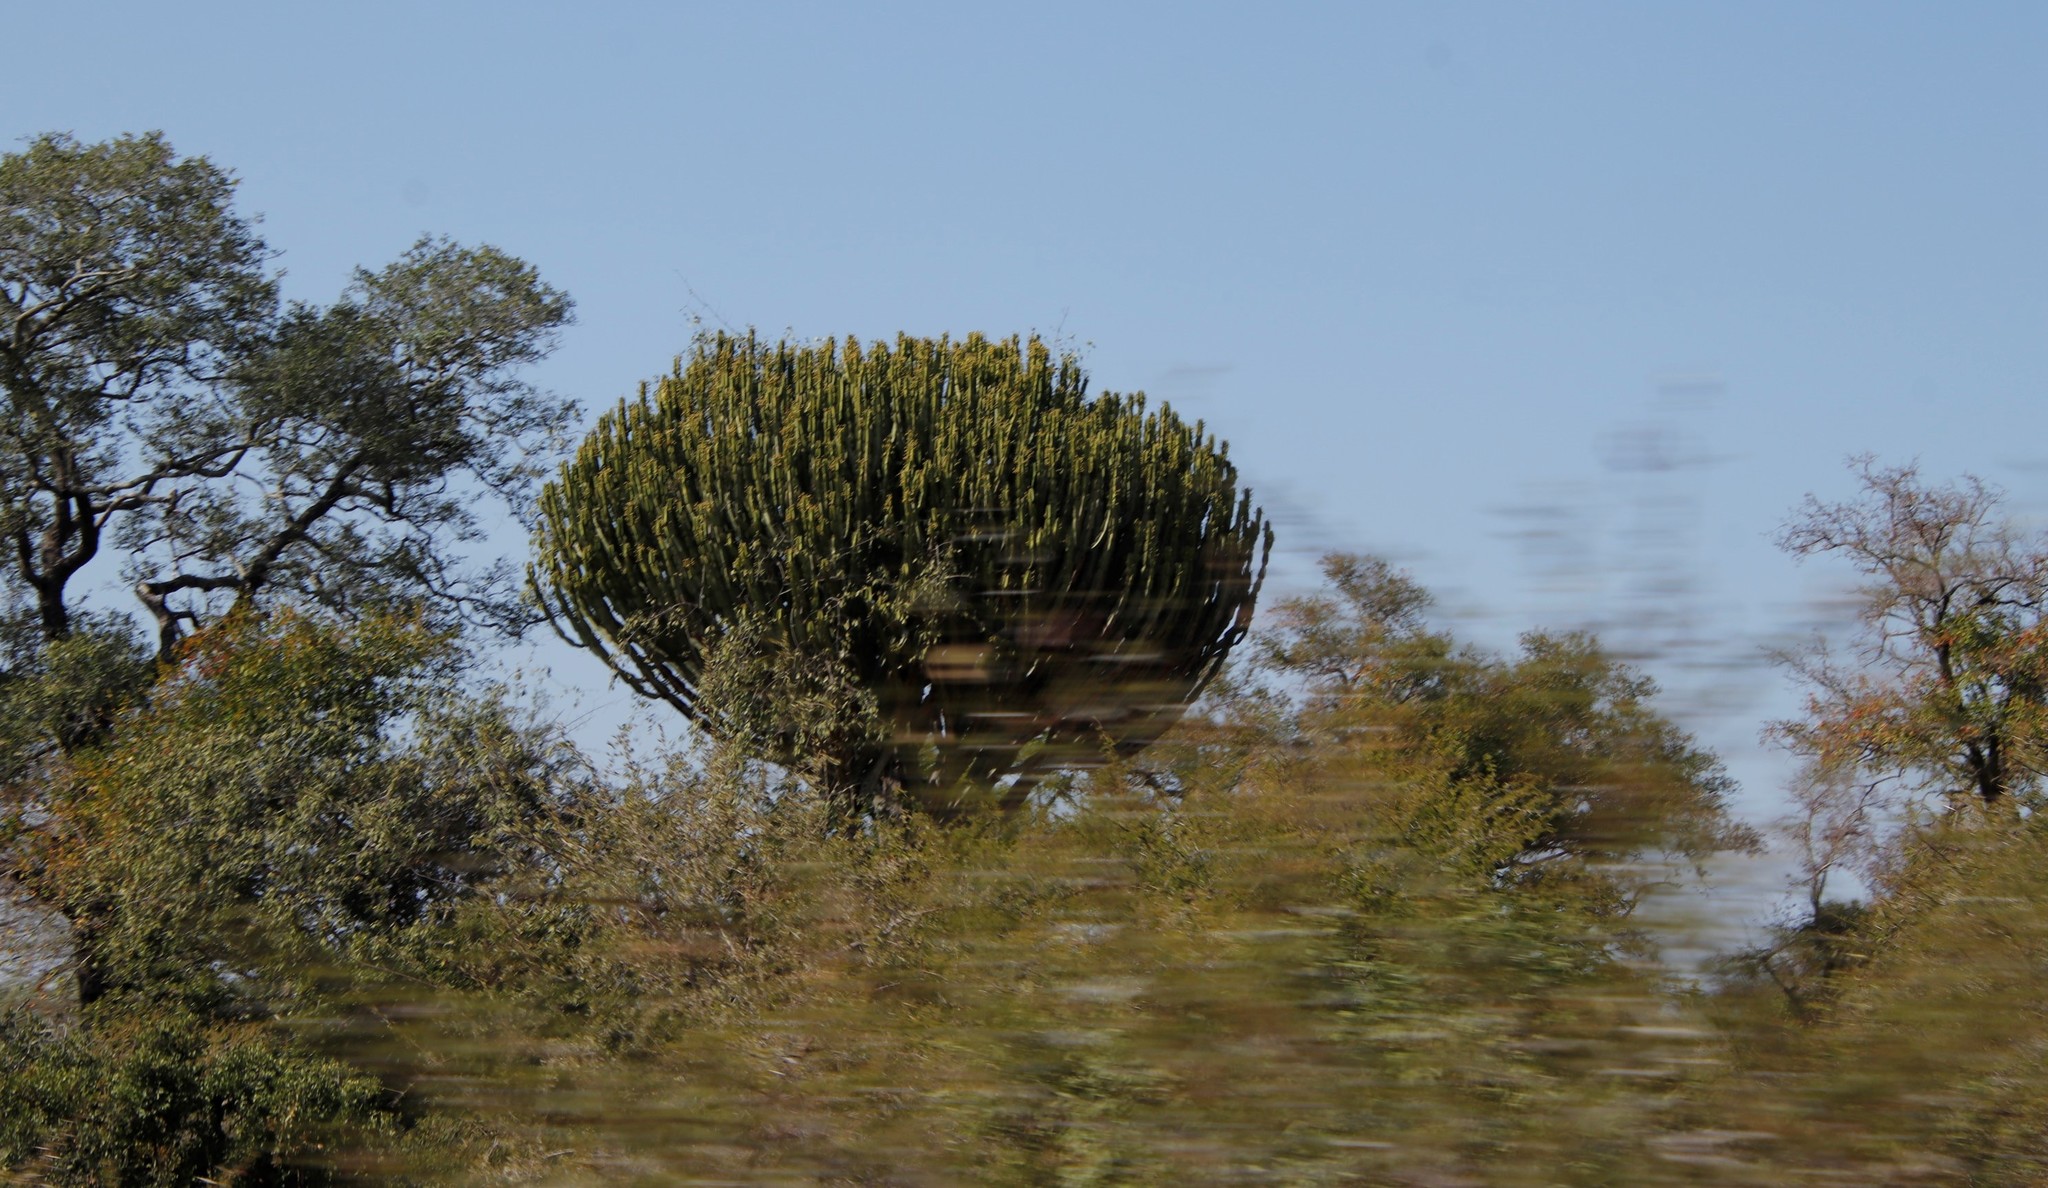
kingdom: Plantae
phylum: Tracheophyta
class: Magnoliopsida
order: Malpighiales
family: Euphorbiaceae
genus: Euphorbia
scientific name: Euphorbia ingens
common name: Cactus spurge
